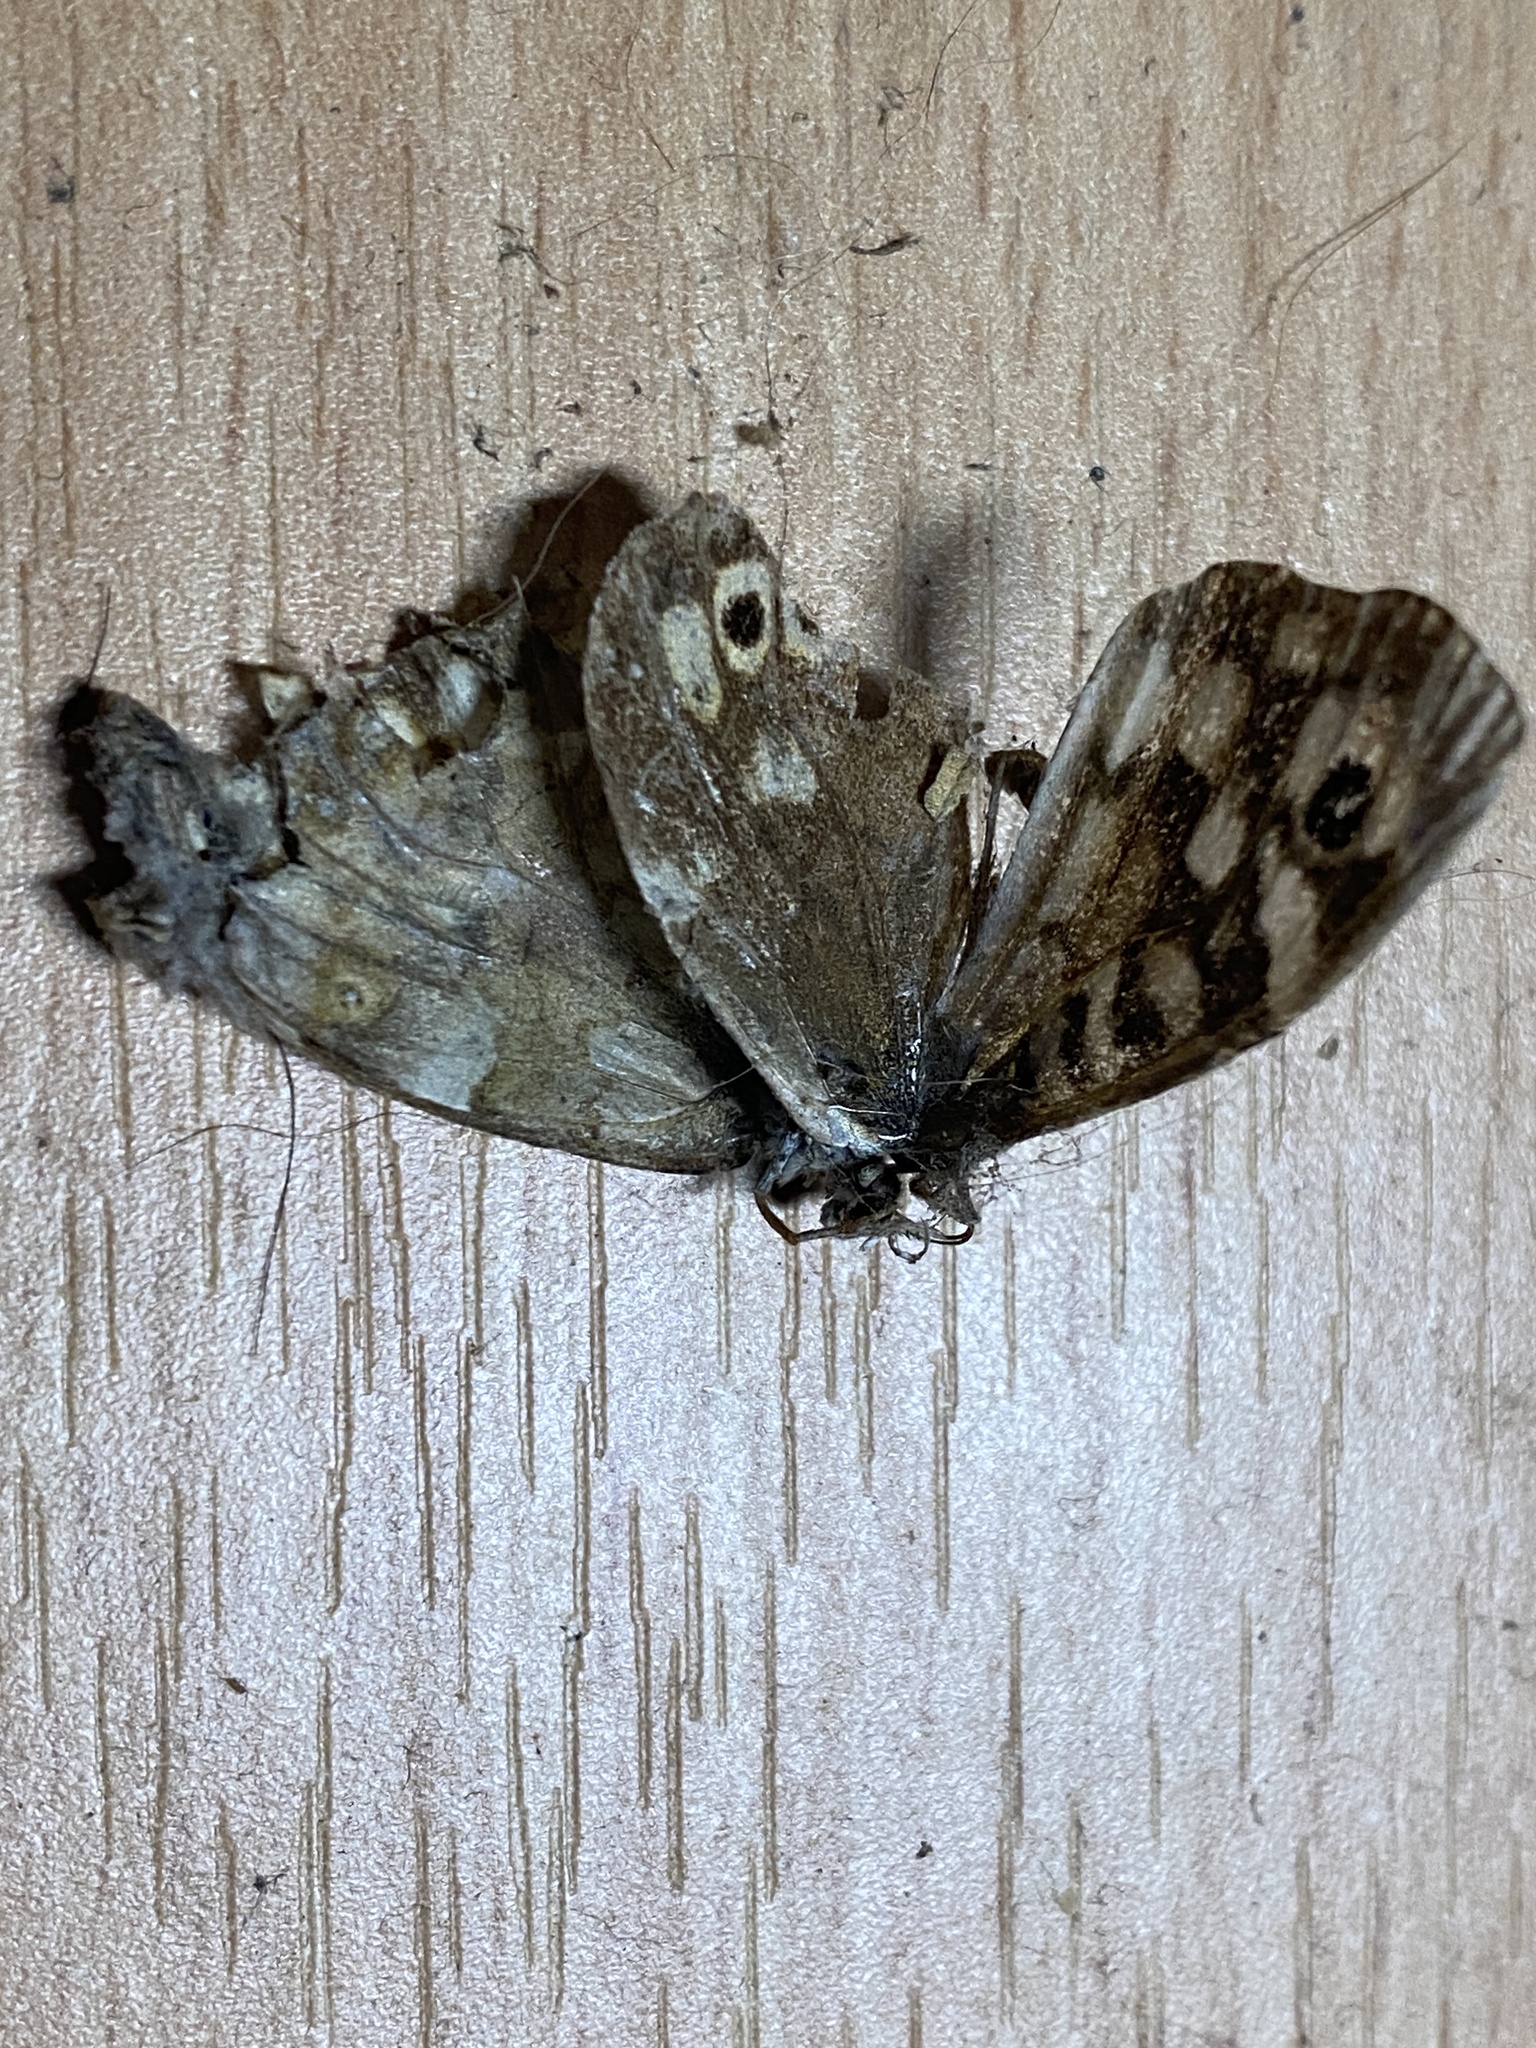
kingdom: Animalia
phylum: Arthropoda
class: Insecta
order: Lepidoptera
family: Nymphalidae
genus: Pararge
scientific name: Pararge aegeria
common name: Speckled wood
